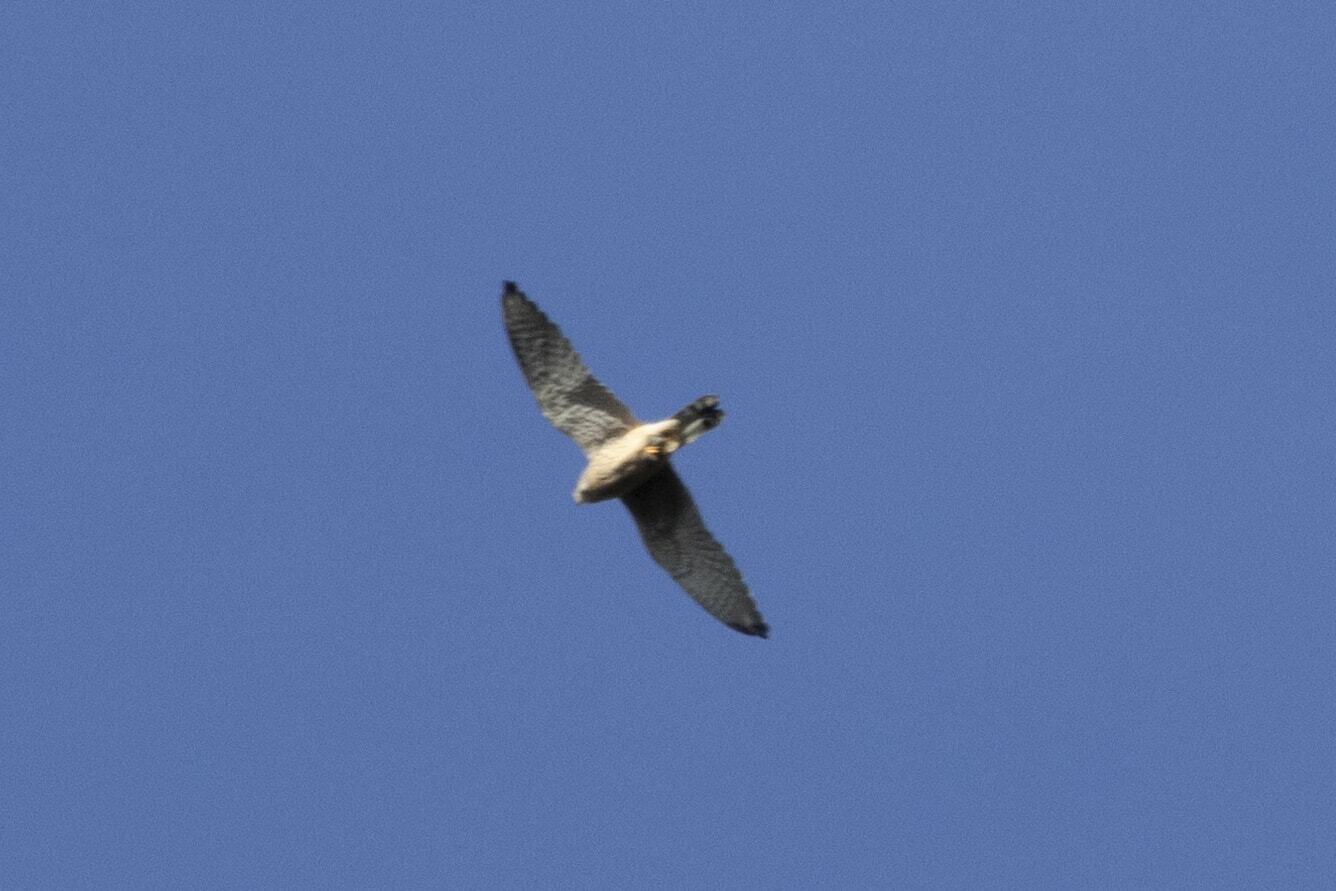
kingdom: Animalia
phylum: Chordata
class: Aves
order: Falconiformes
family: Falconidae
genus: Falco
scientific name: Falco tinnunculus
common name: Common kestrel
